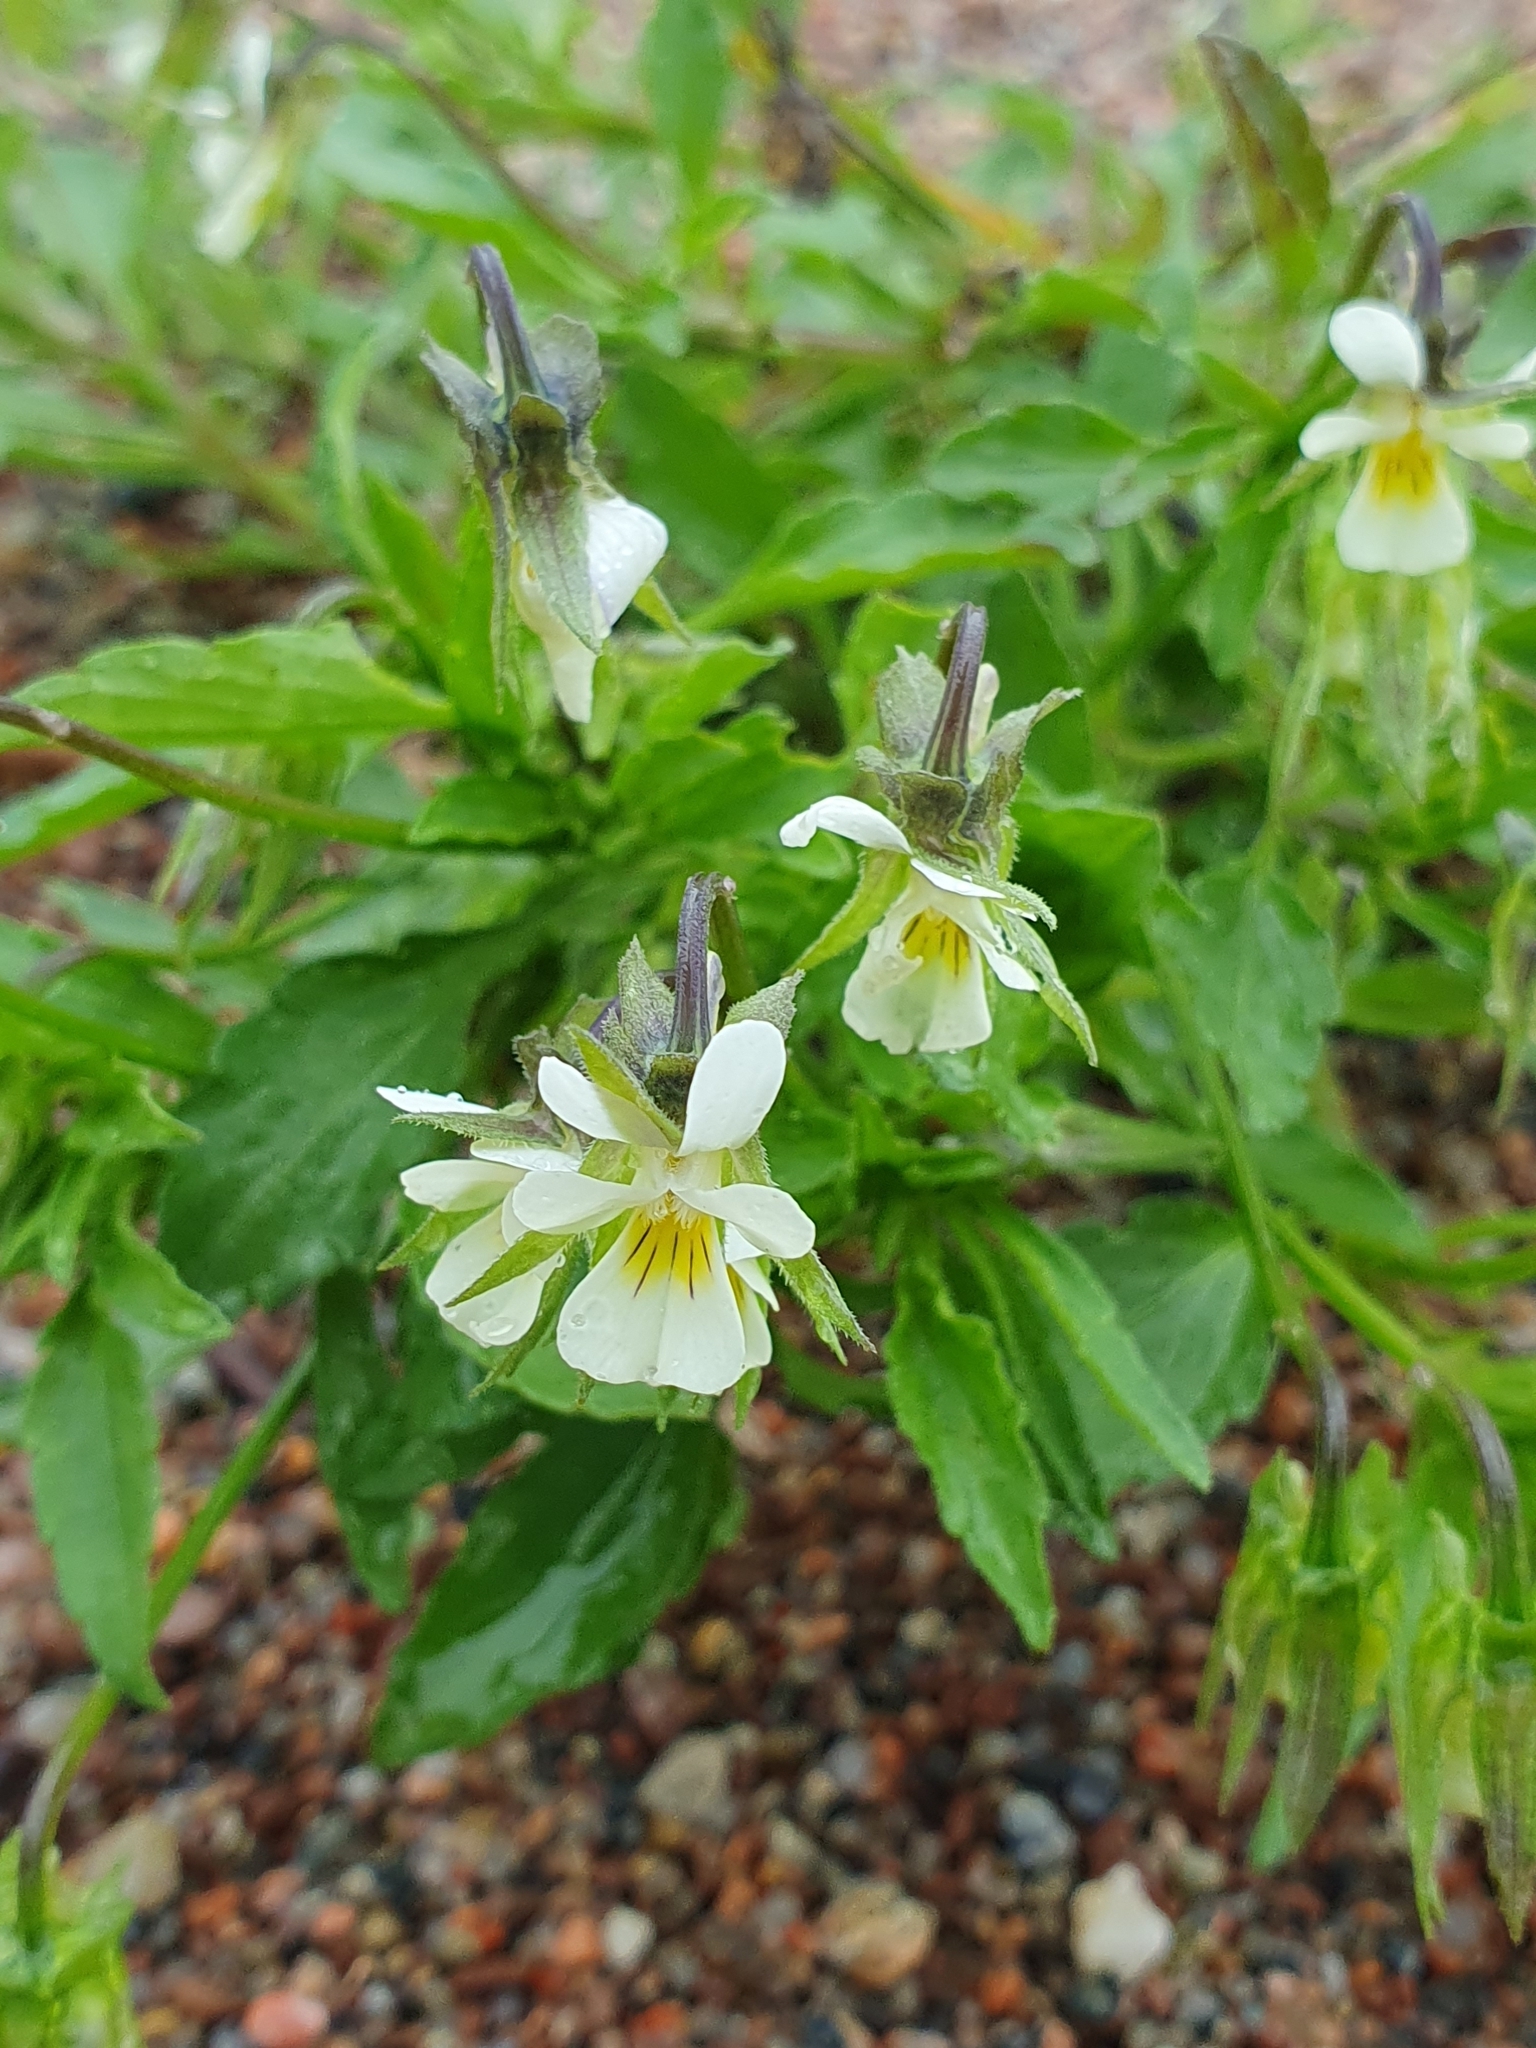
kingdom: Plantae
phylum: Tracheophyta
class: Magnoliopsida
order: Malpighiales
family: Violaceae
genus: Viola
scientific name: Viola arvensis
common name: Field pansy
